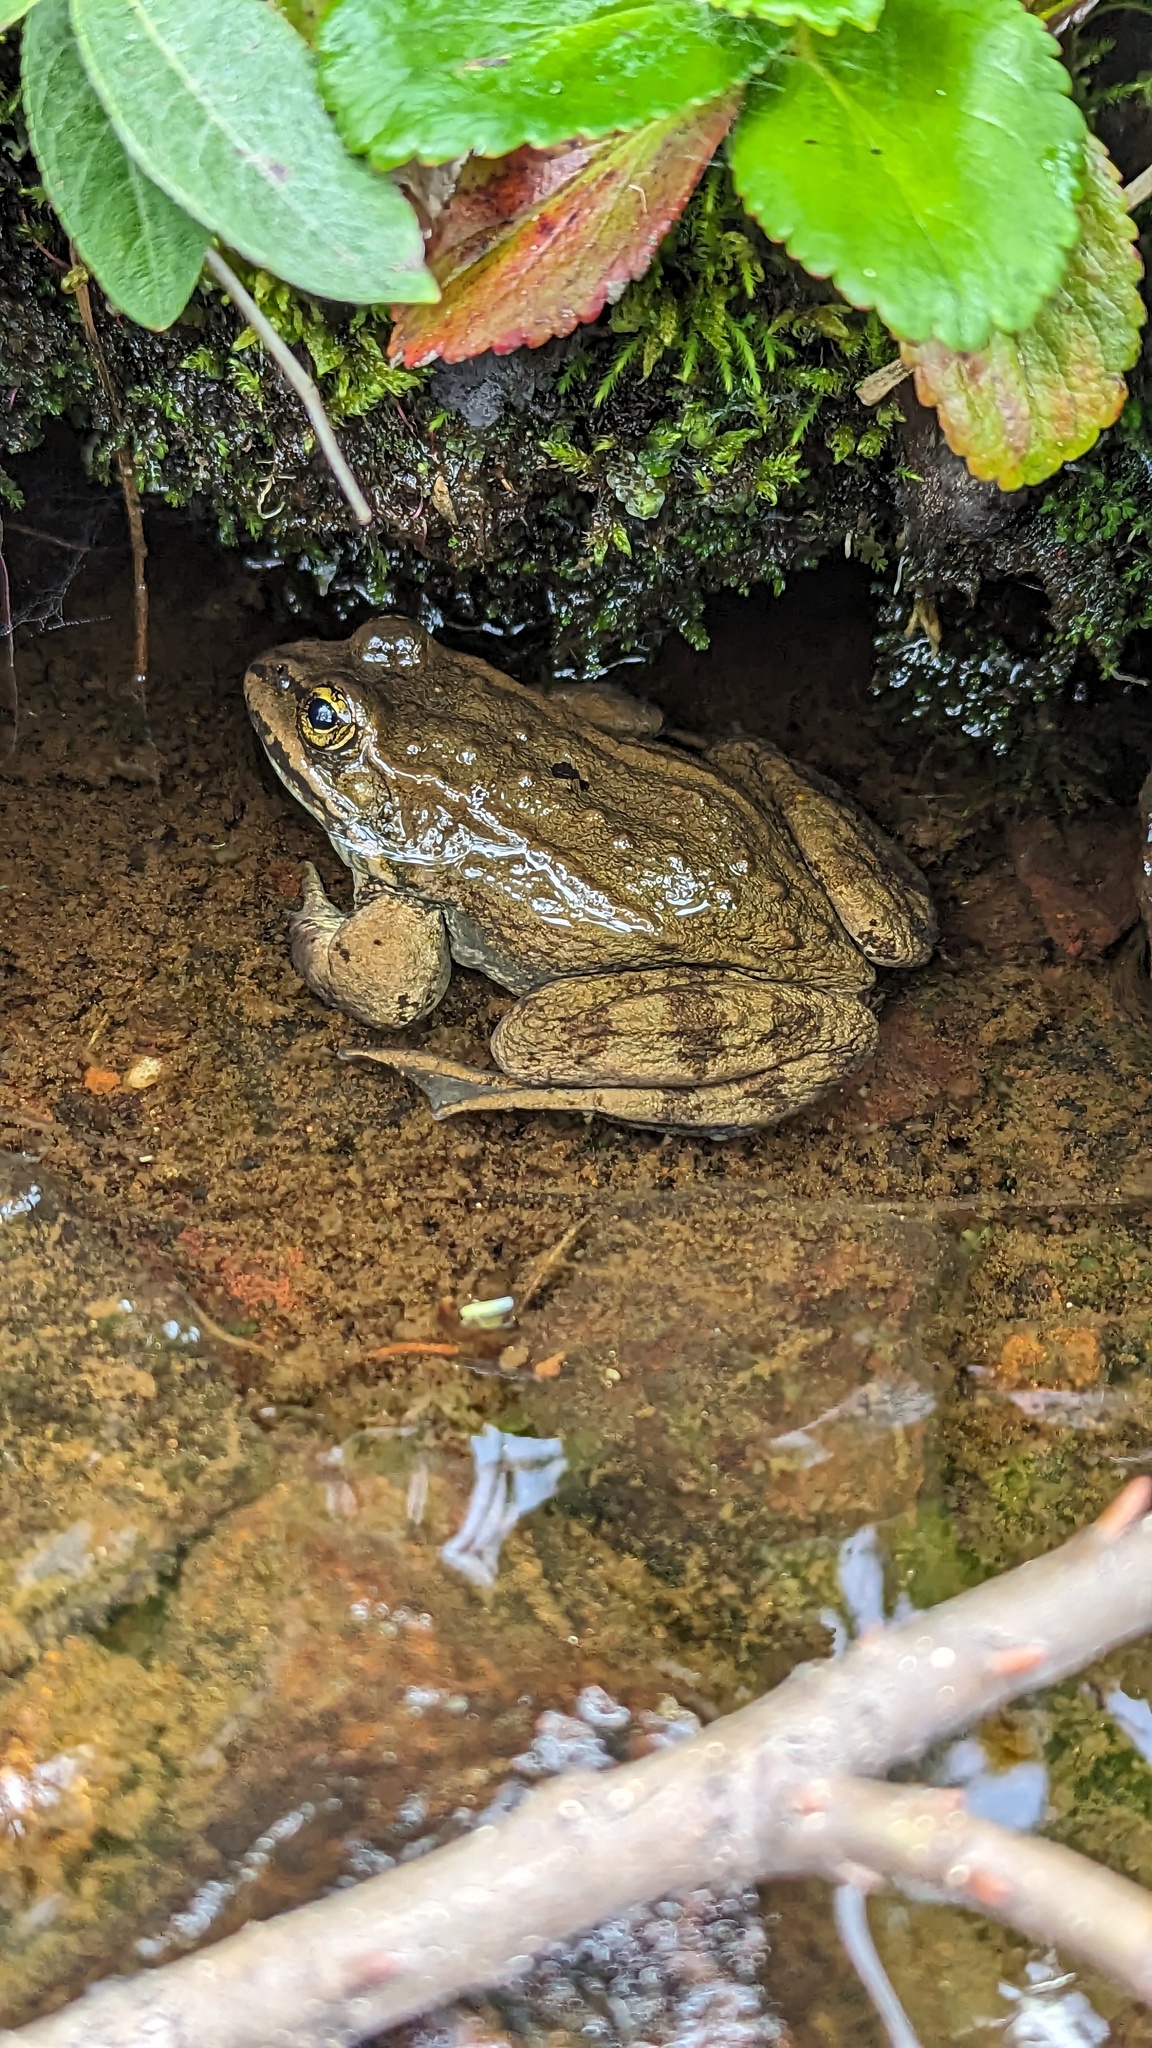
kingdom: Animalia
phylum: Chordata
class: Amphibia
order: Anura
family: Ranidae
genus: Rana
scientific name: Rana luteiventris
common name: Columbia spotted frog
